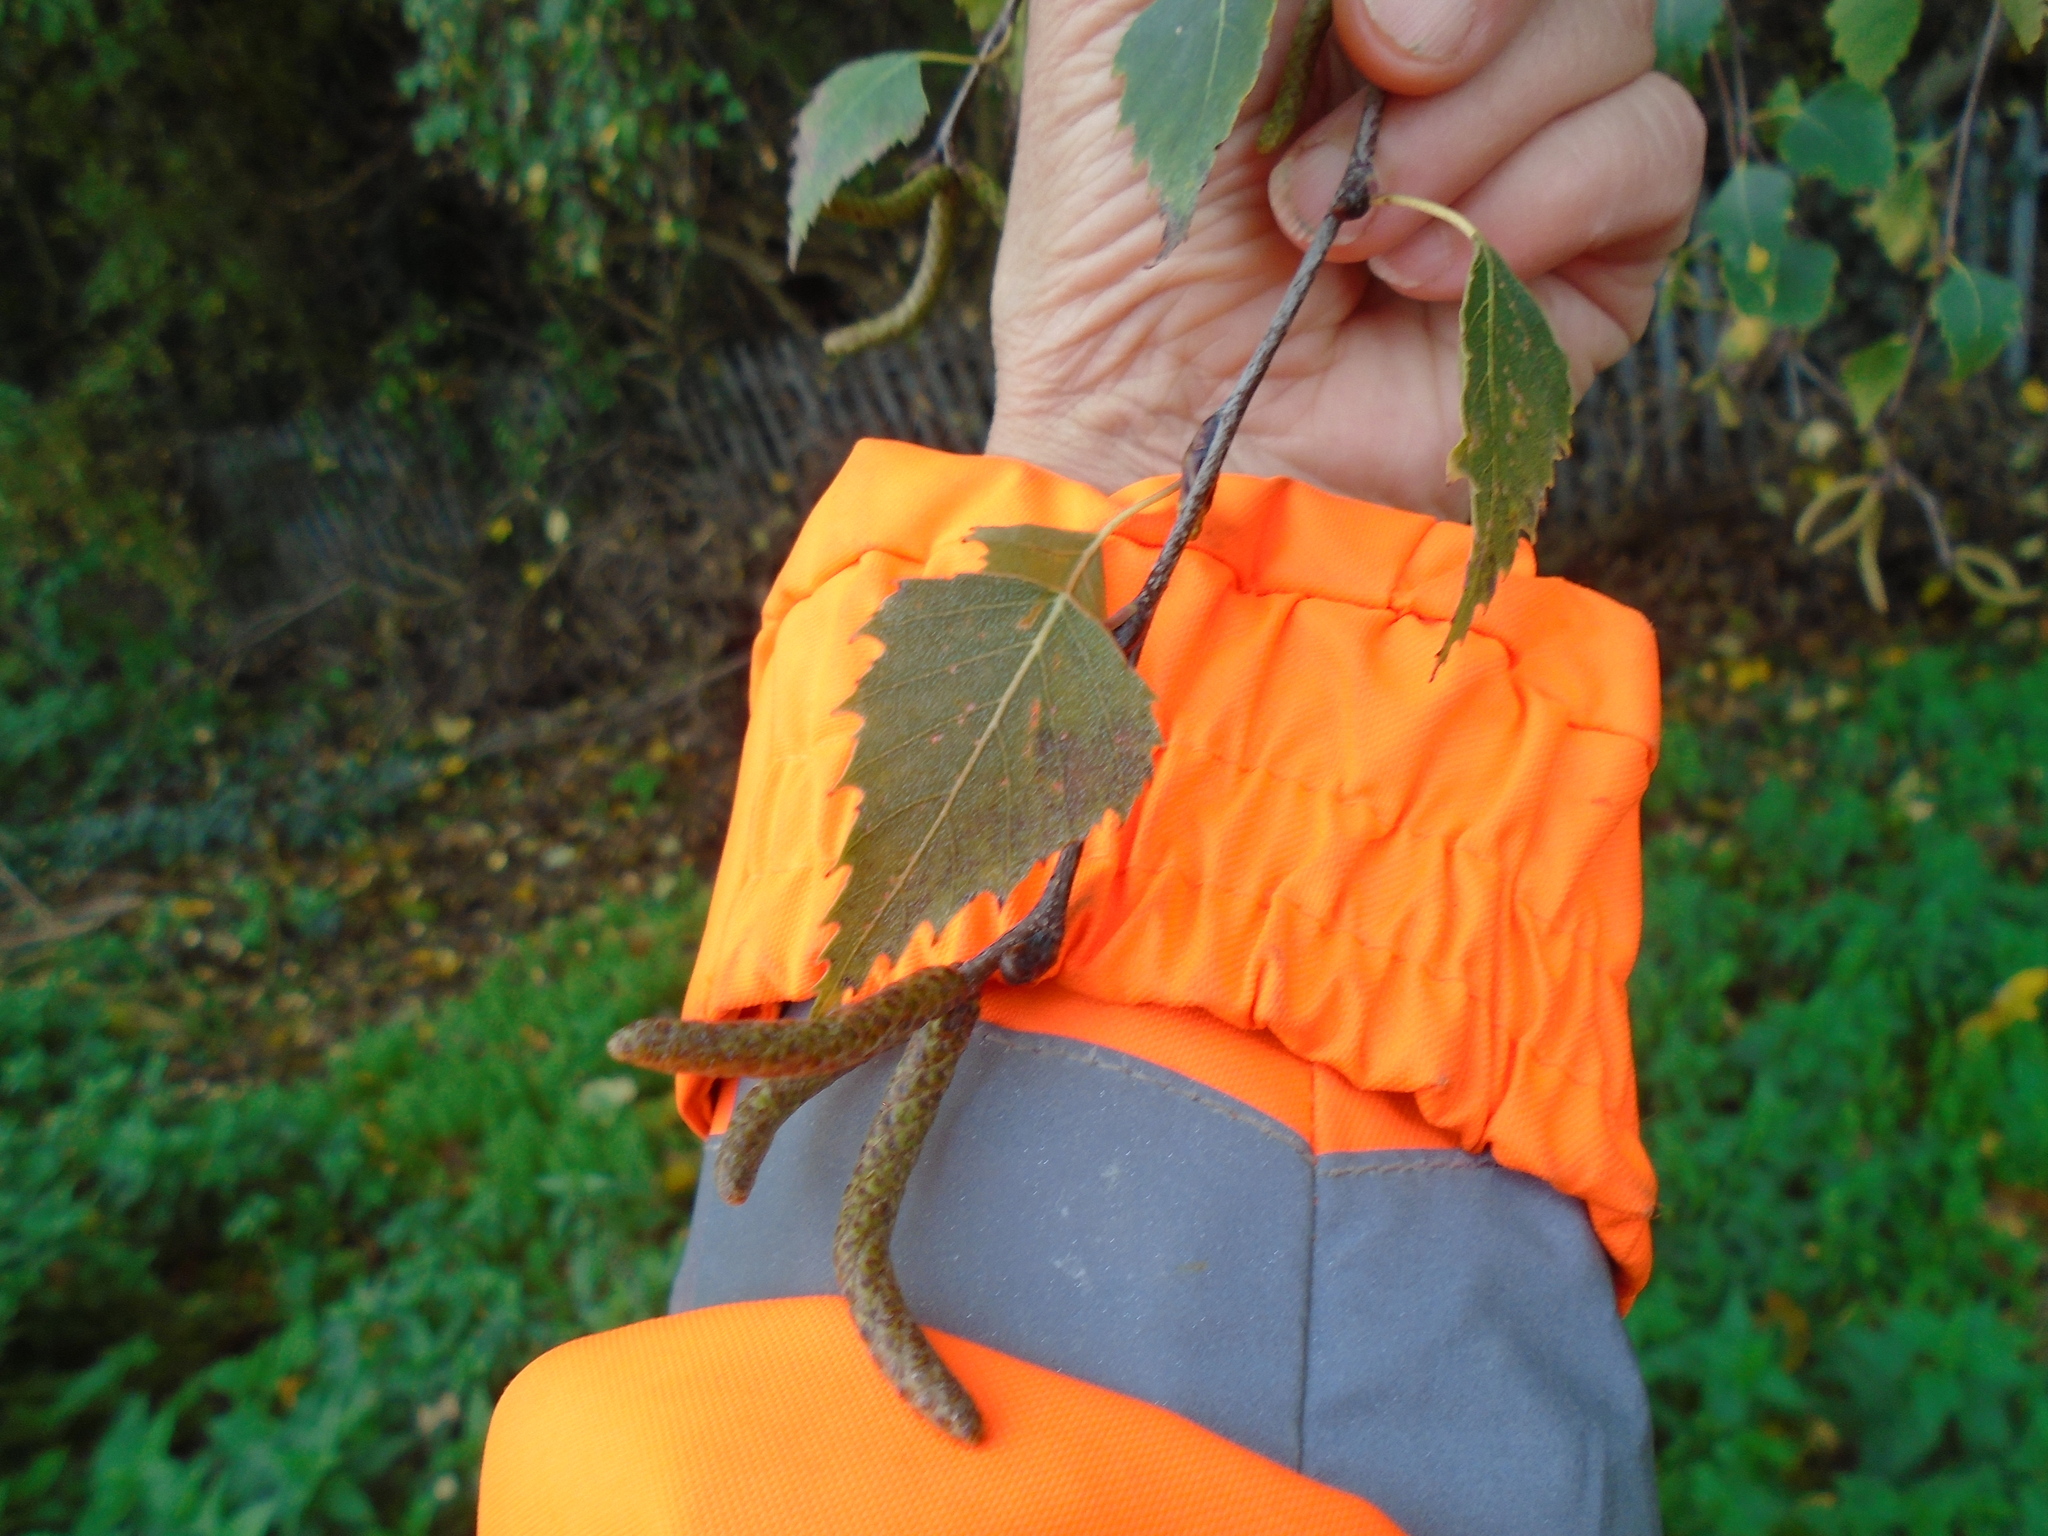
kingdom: Plantae
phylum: Tracheophyta
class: Magnoliopsida
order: Fagales
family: Betulaceae
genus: Betula
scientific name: Betula pendula
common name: Silver birch
